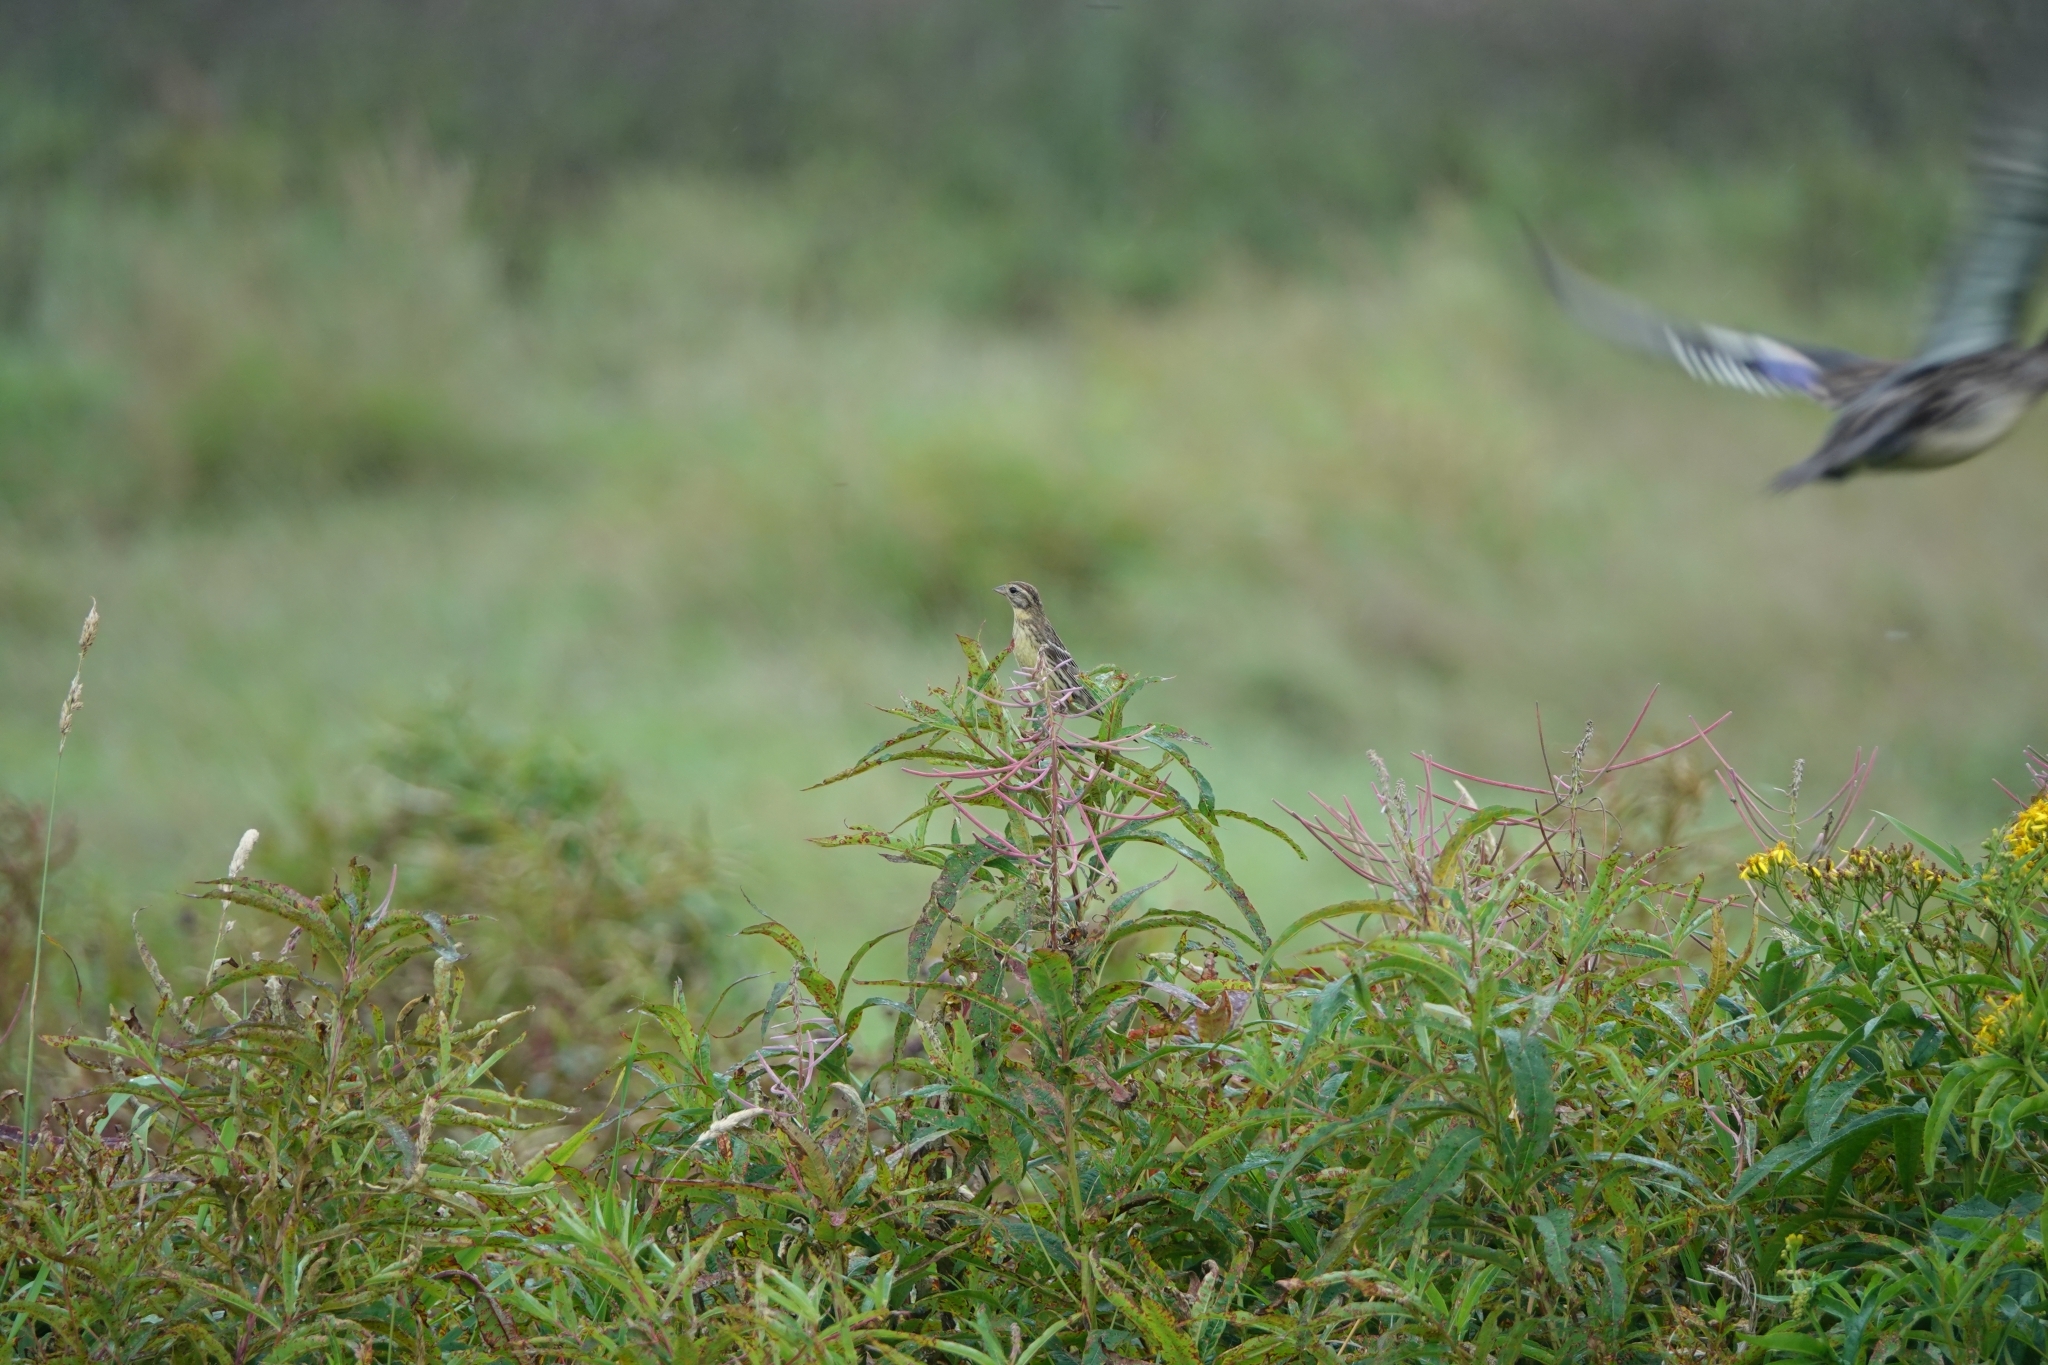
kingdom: Animalia
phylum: Chordata
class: Aves
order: Passeriformes
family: Emberizidae
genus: Emberiza
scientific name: Emberiza aureola
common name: Yellow-breasted bunting
